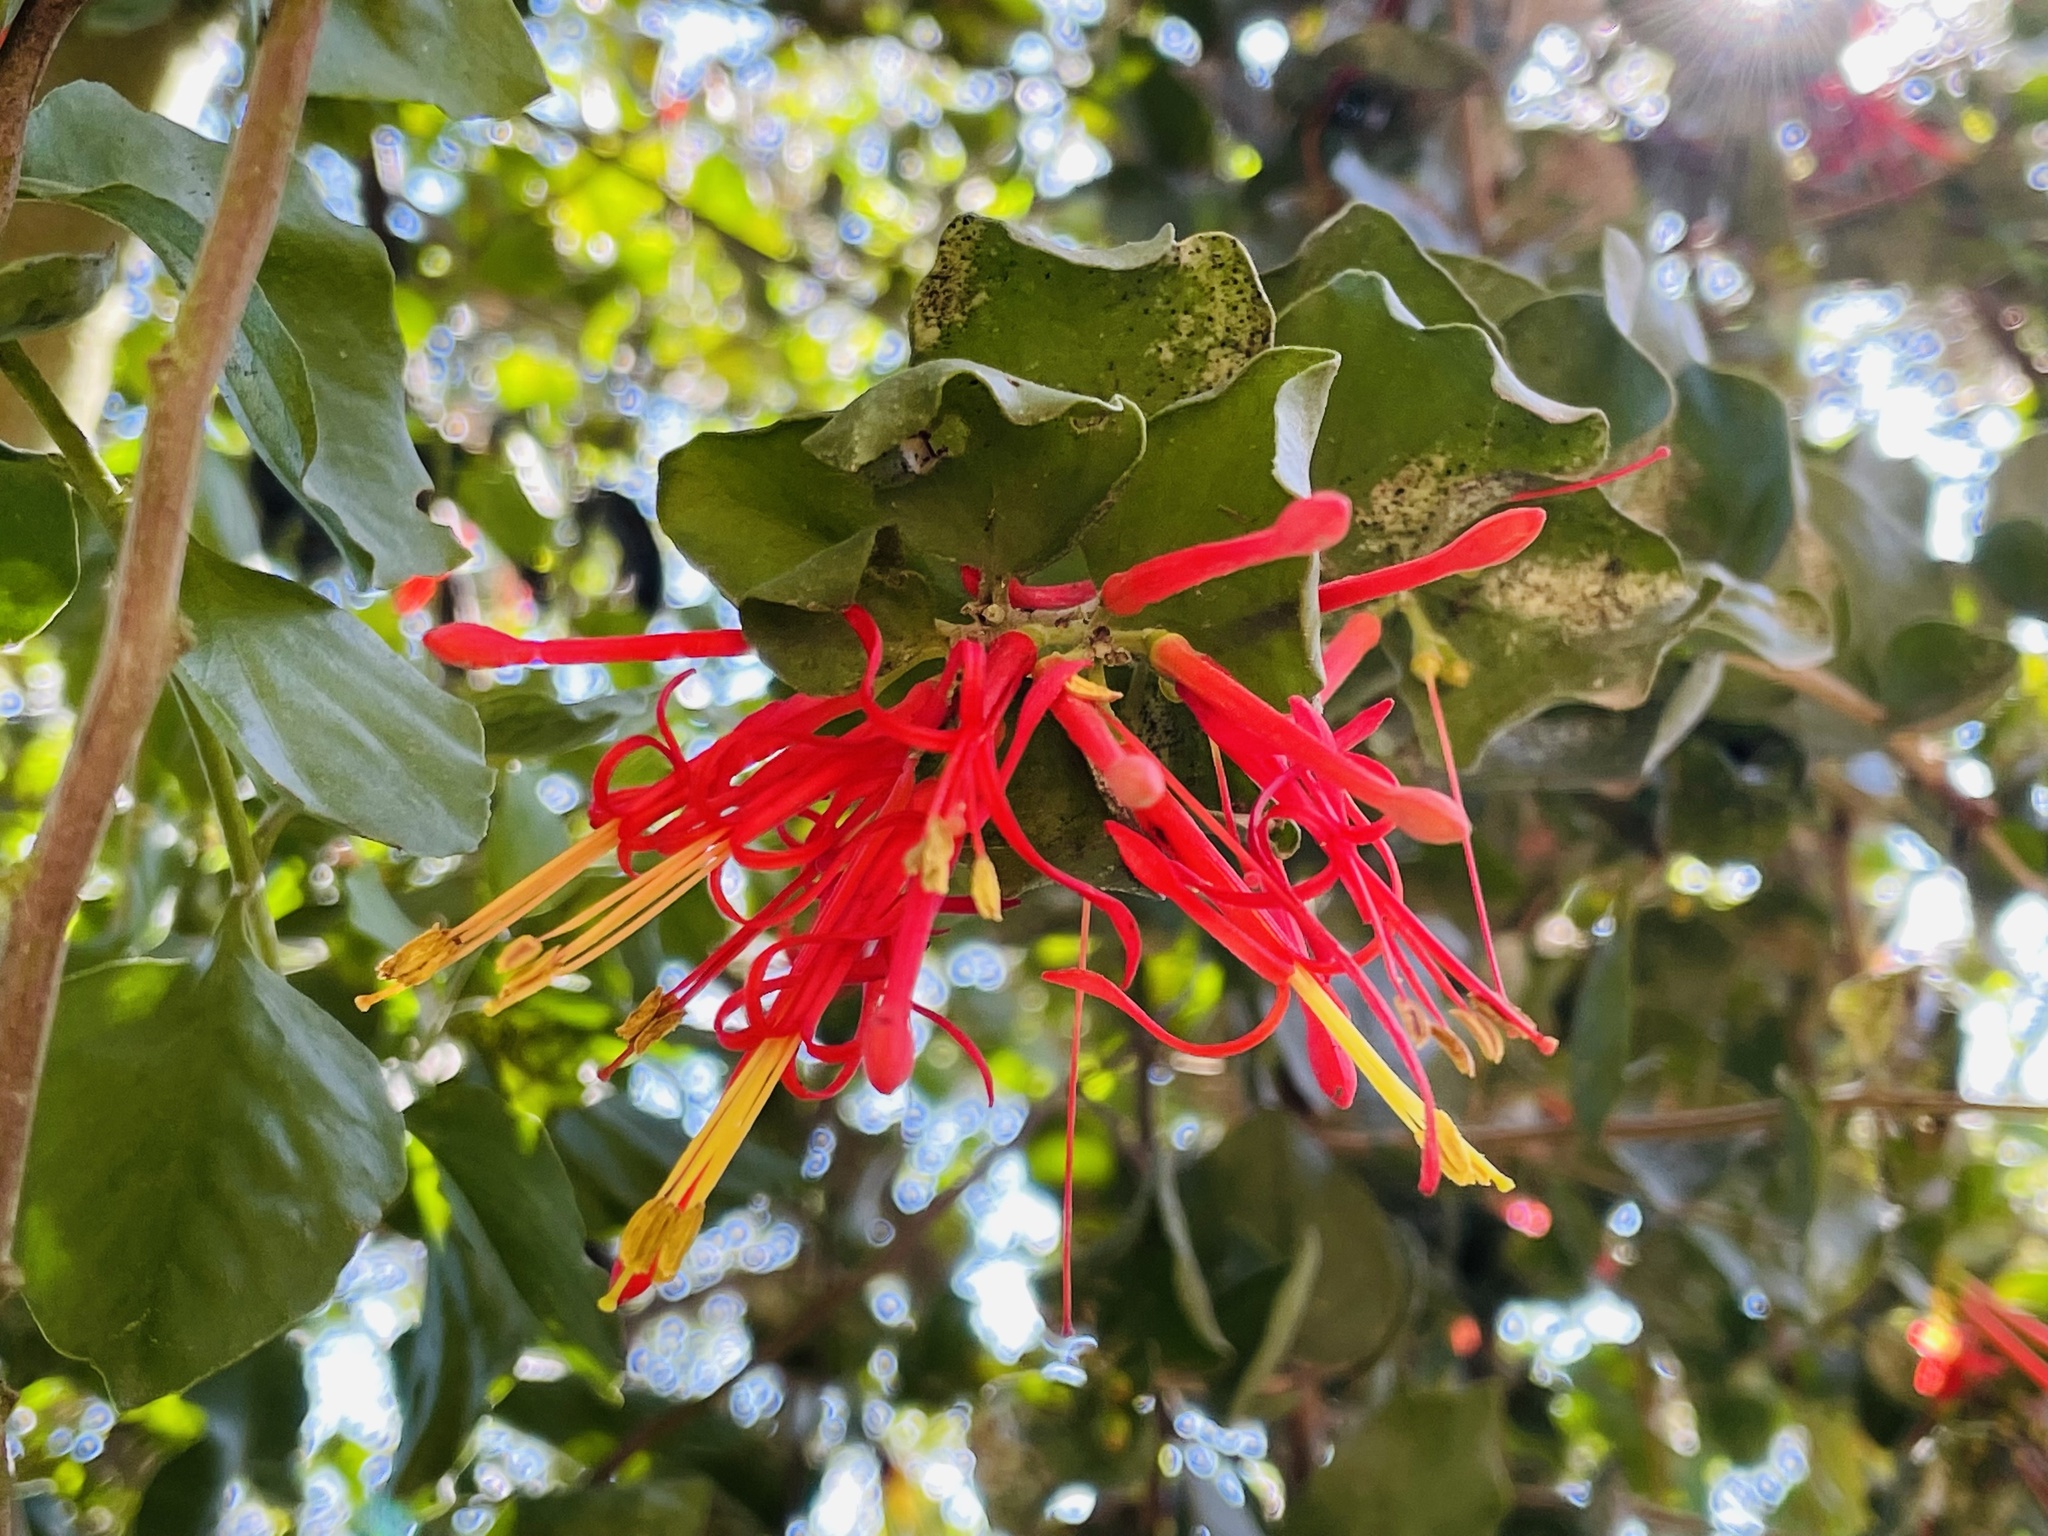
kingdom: Plantae
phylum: Tracheophyta
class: Magnoliopsida
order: Santalales
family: Loranthaceae
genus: Tristerix
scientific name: Tristerix corymbosus
